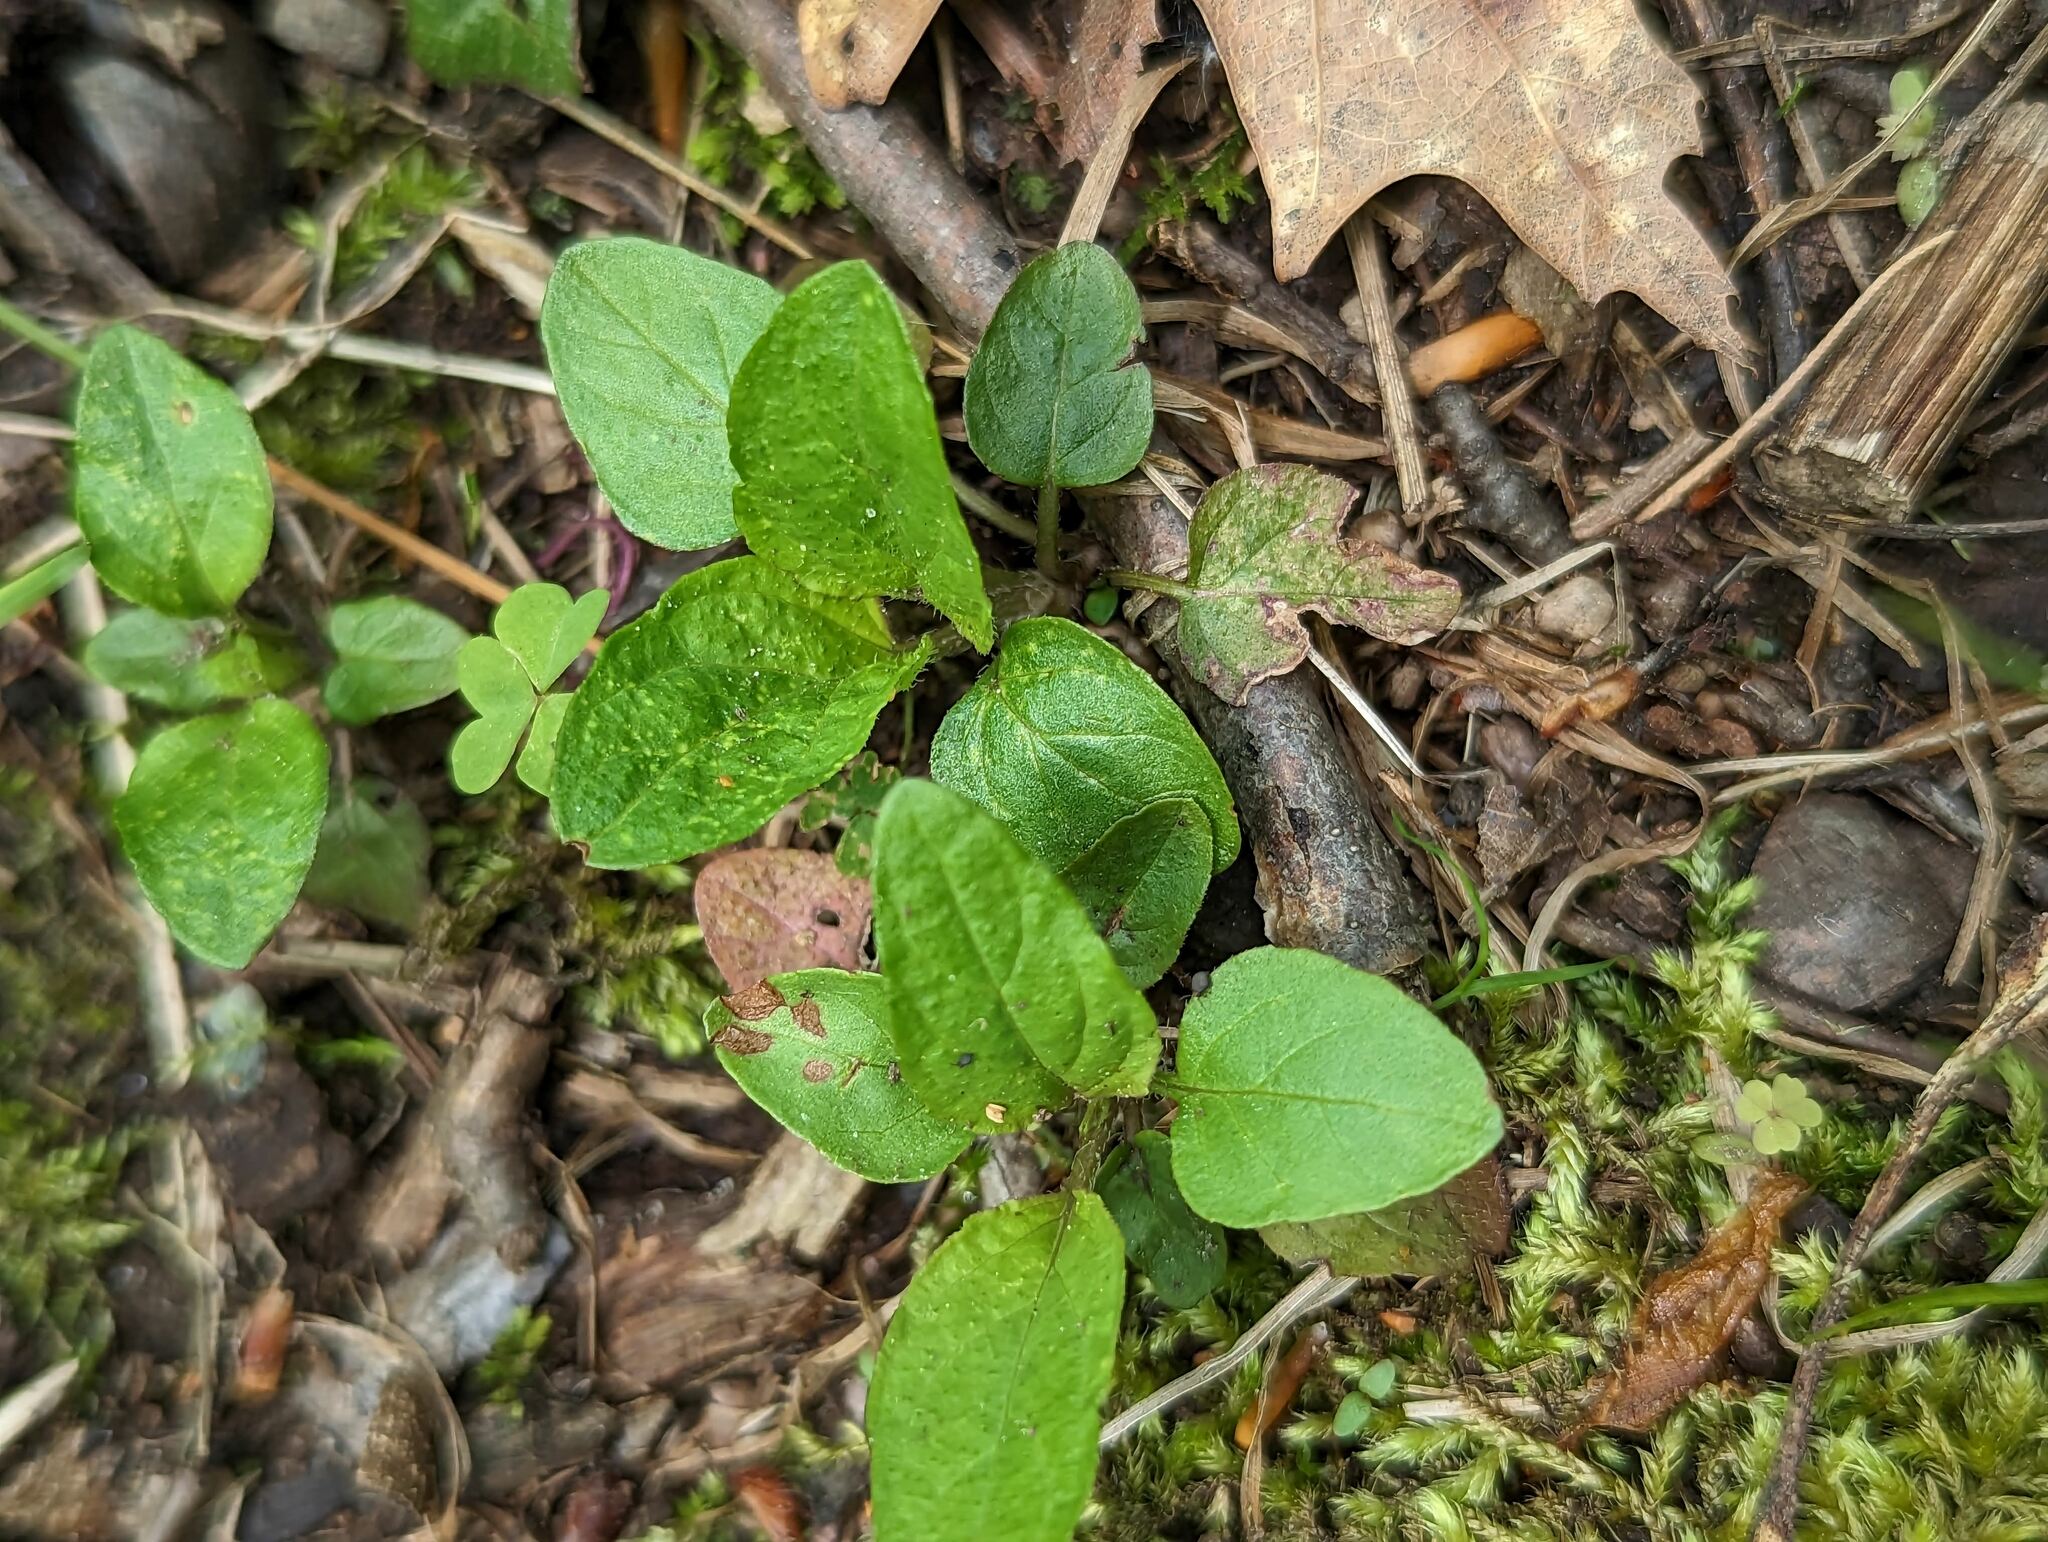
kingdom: Plantae
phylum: Tracheophyta
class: Magnoliopsida
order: Lamiales
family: Lamiaceae
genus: Prunella
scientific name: Prunella vulgaris
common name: Heal-all
